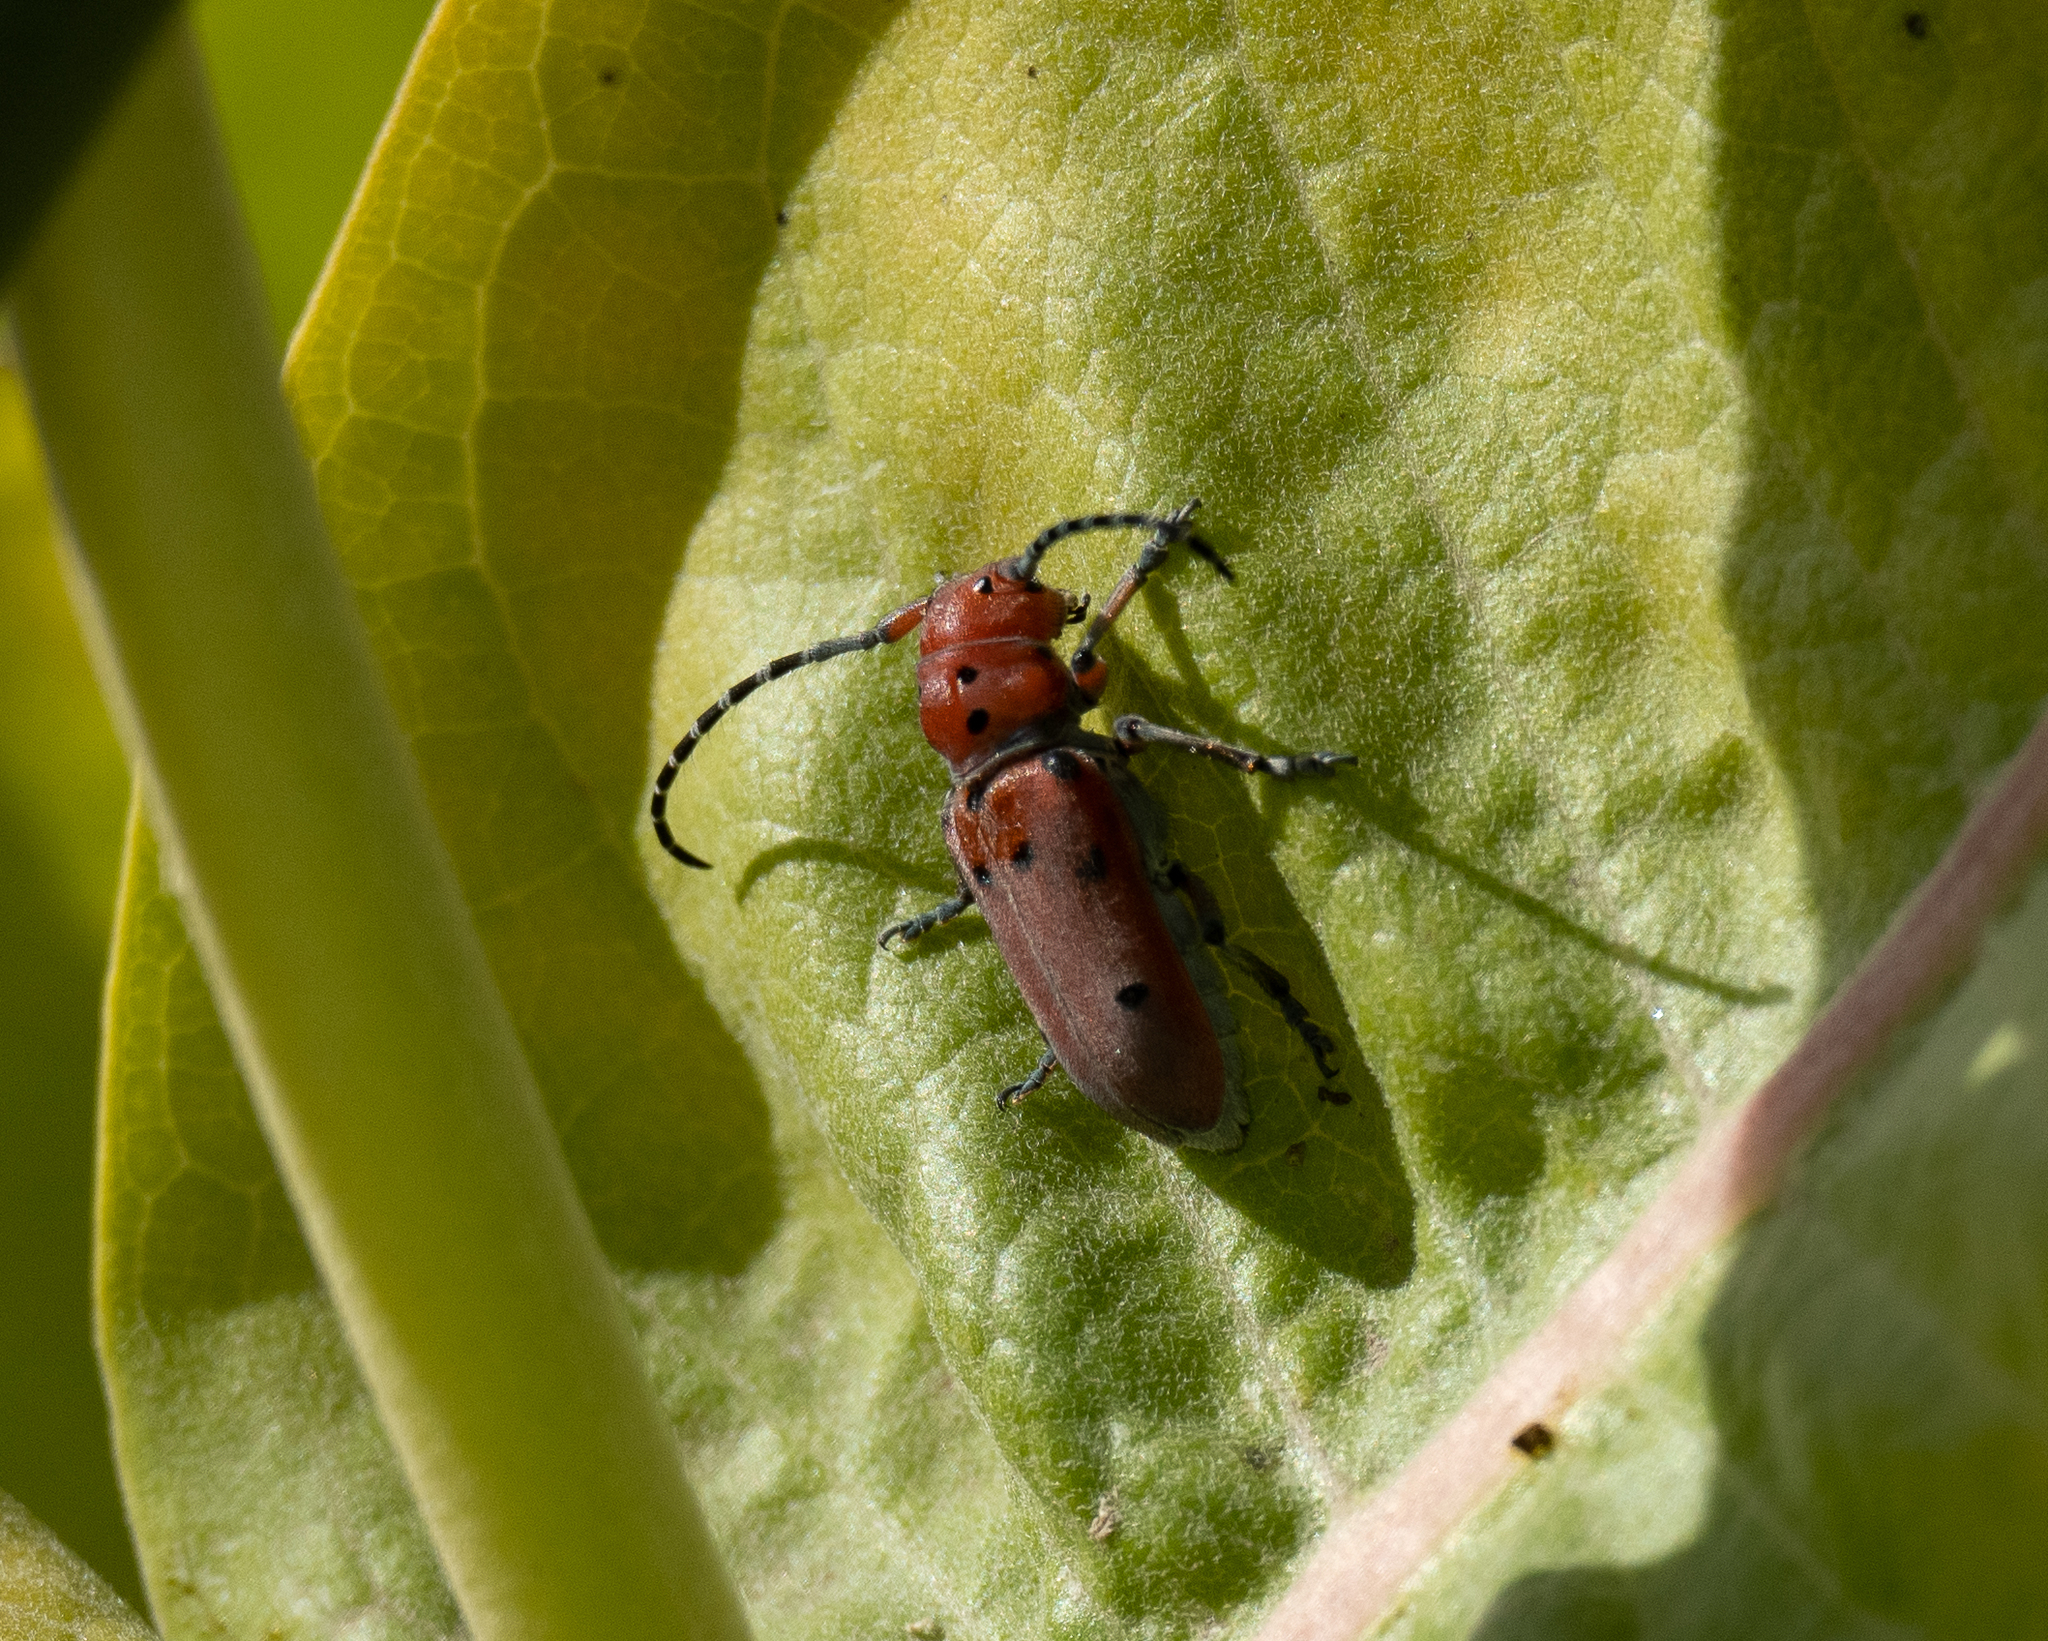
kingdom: Animalia
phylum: Arthropoda
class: Insecta
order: Coleoptera
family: Cerambycidae
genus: Tetraopes
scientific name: Tetraopes femoratus
